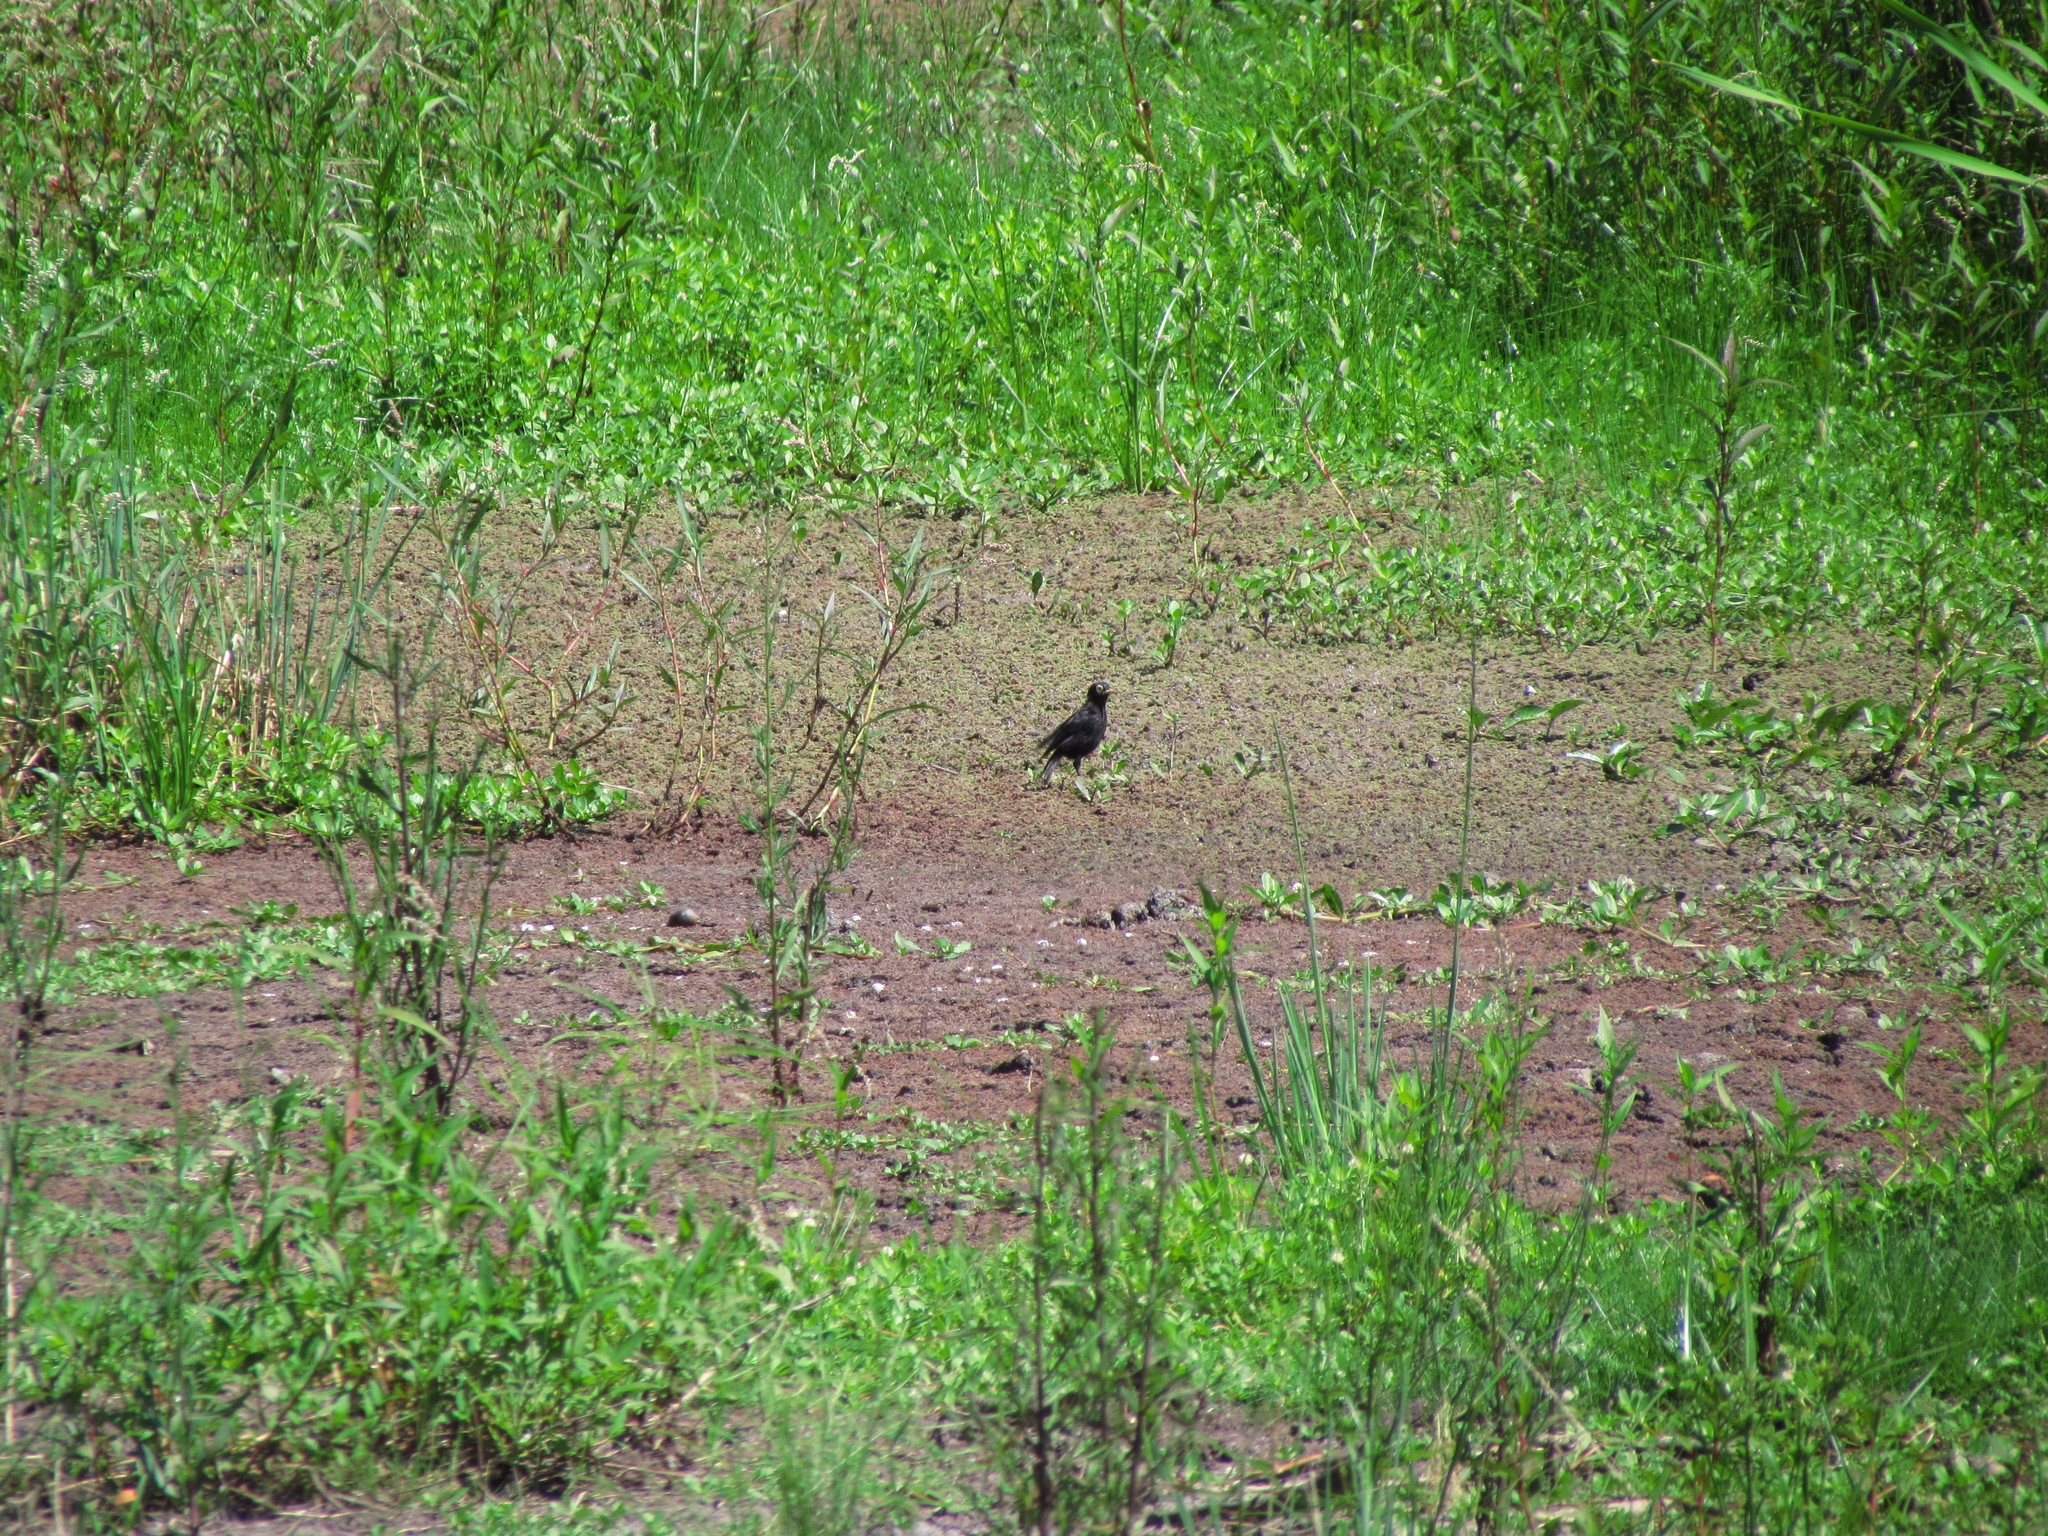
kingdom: Animalia
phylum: Chordata
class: Aves
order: Passeriformes
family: Tyrannidae
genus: Hymenops
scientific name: Hymenops perspicillatus
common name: Spectacled tyrant
